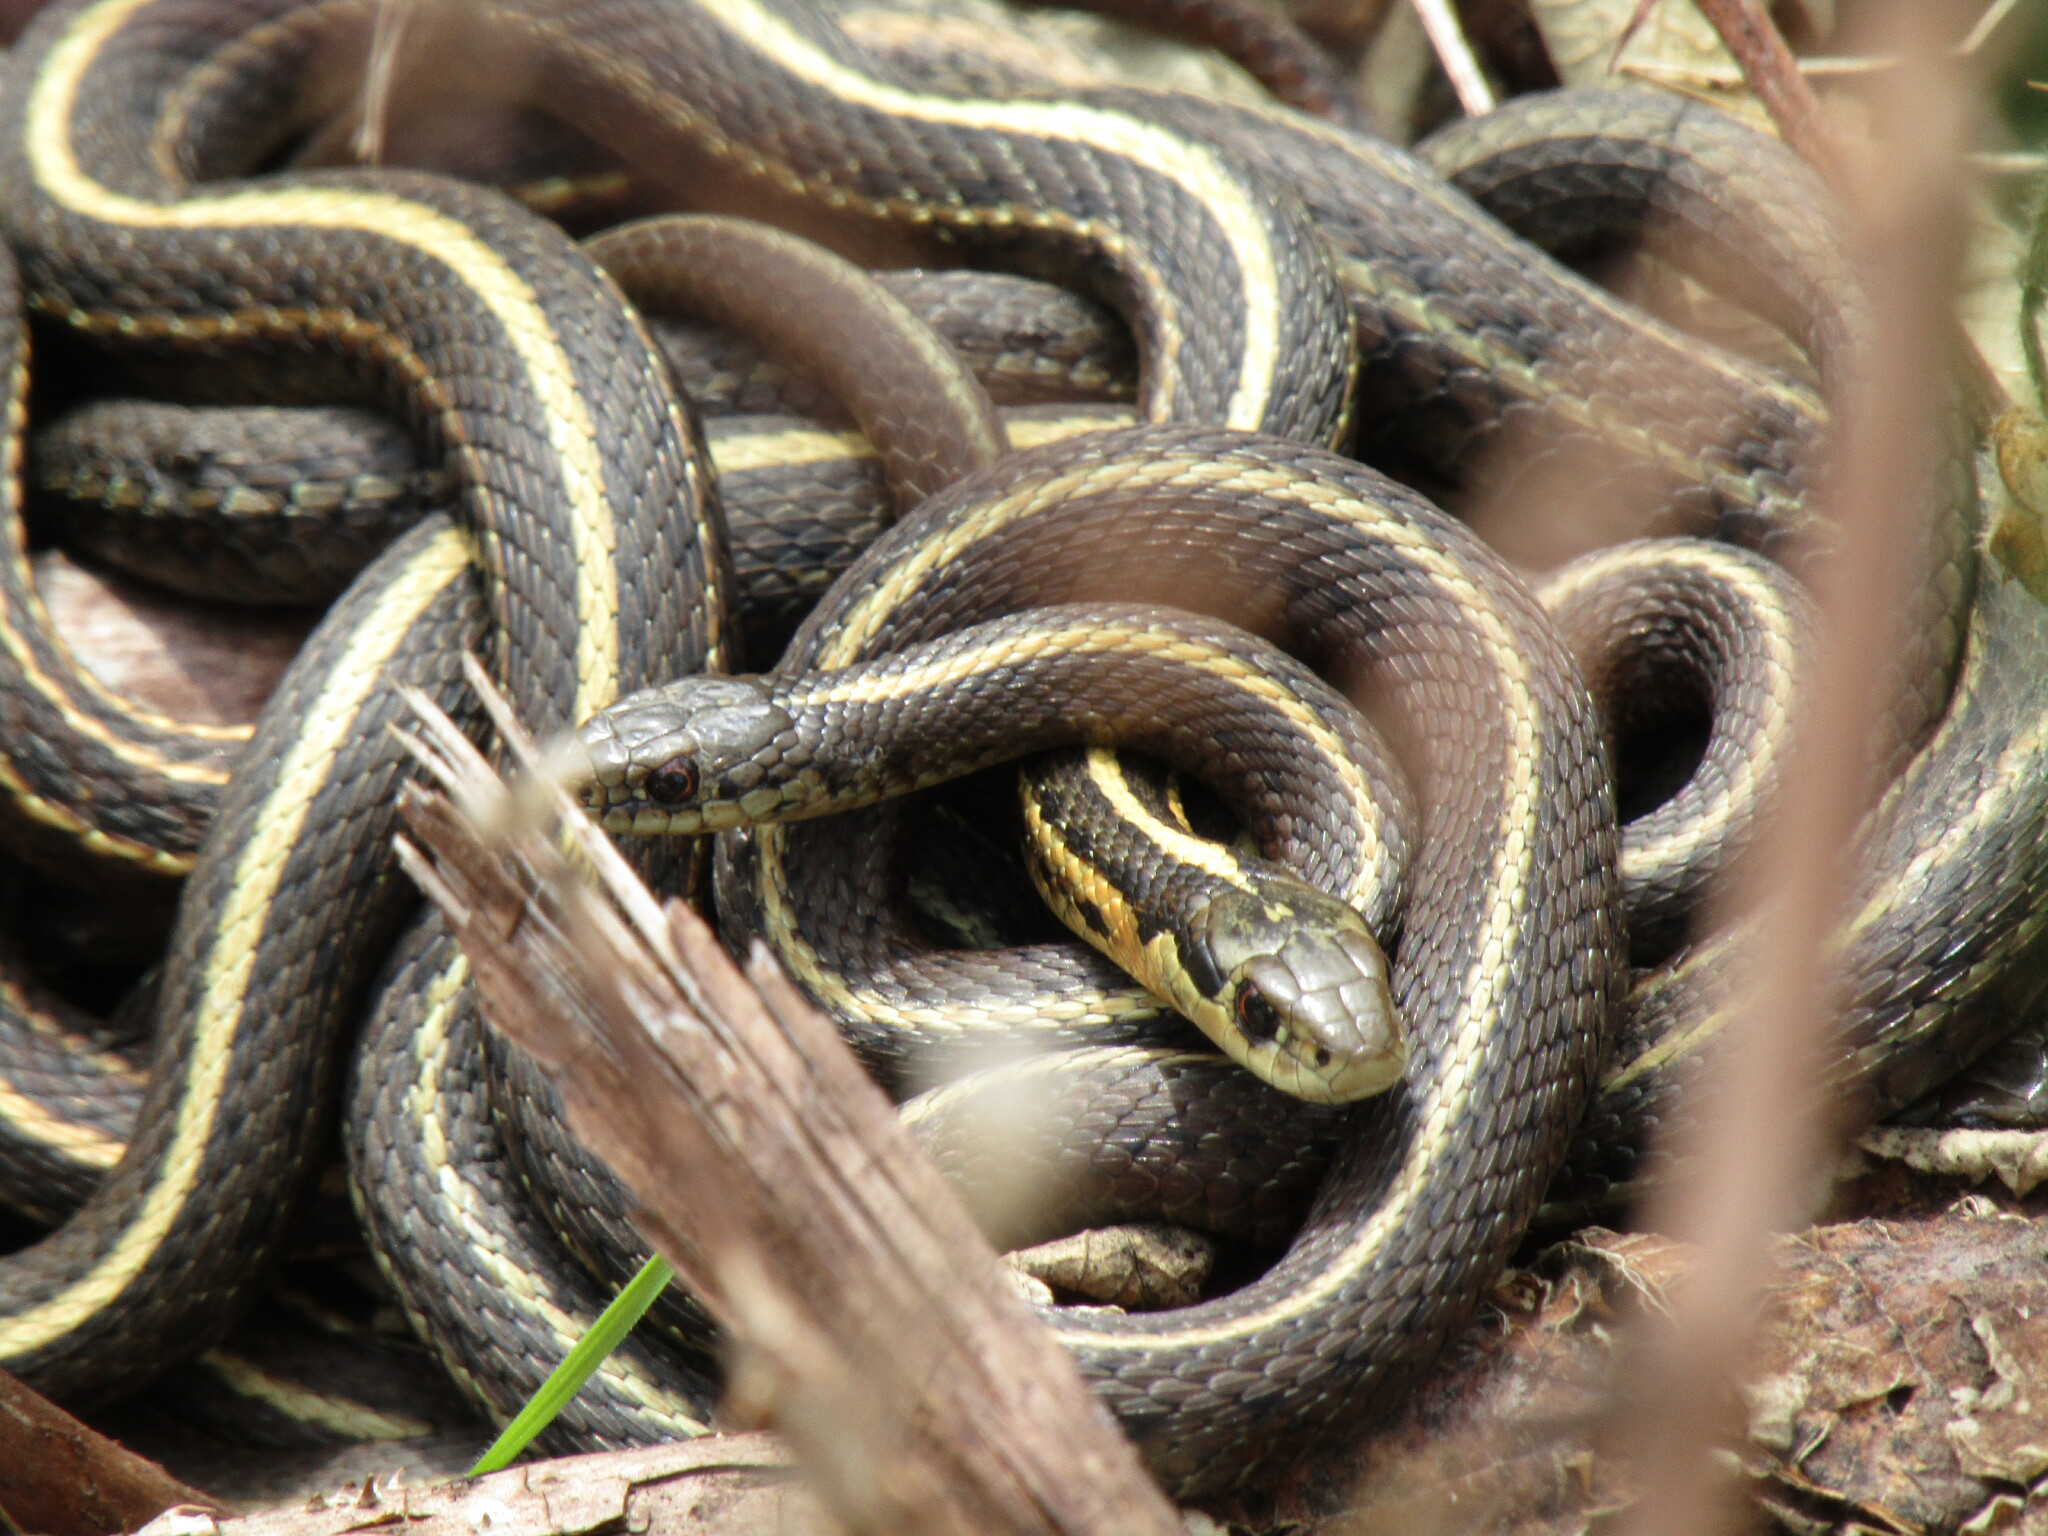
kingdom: Animalia
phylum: Chordata
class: Squamata
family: Colubridae
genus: Thamnophis
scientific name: Thamnophis ordinoides
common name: Northwestern garter snake
